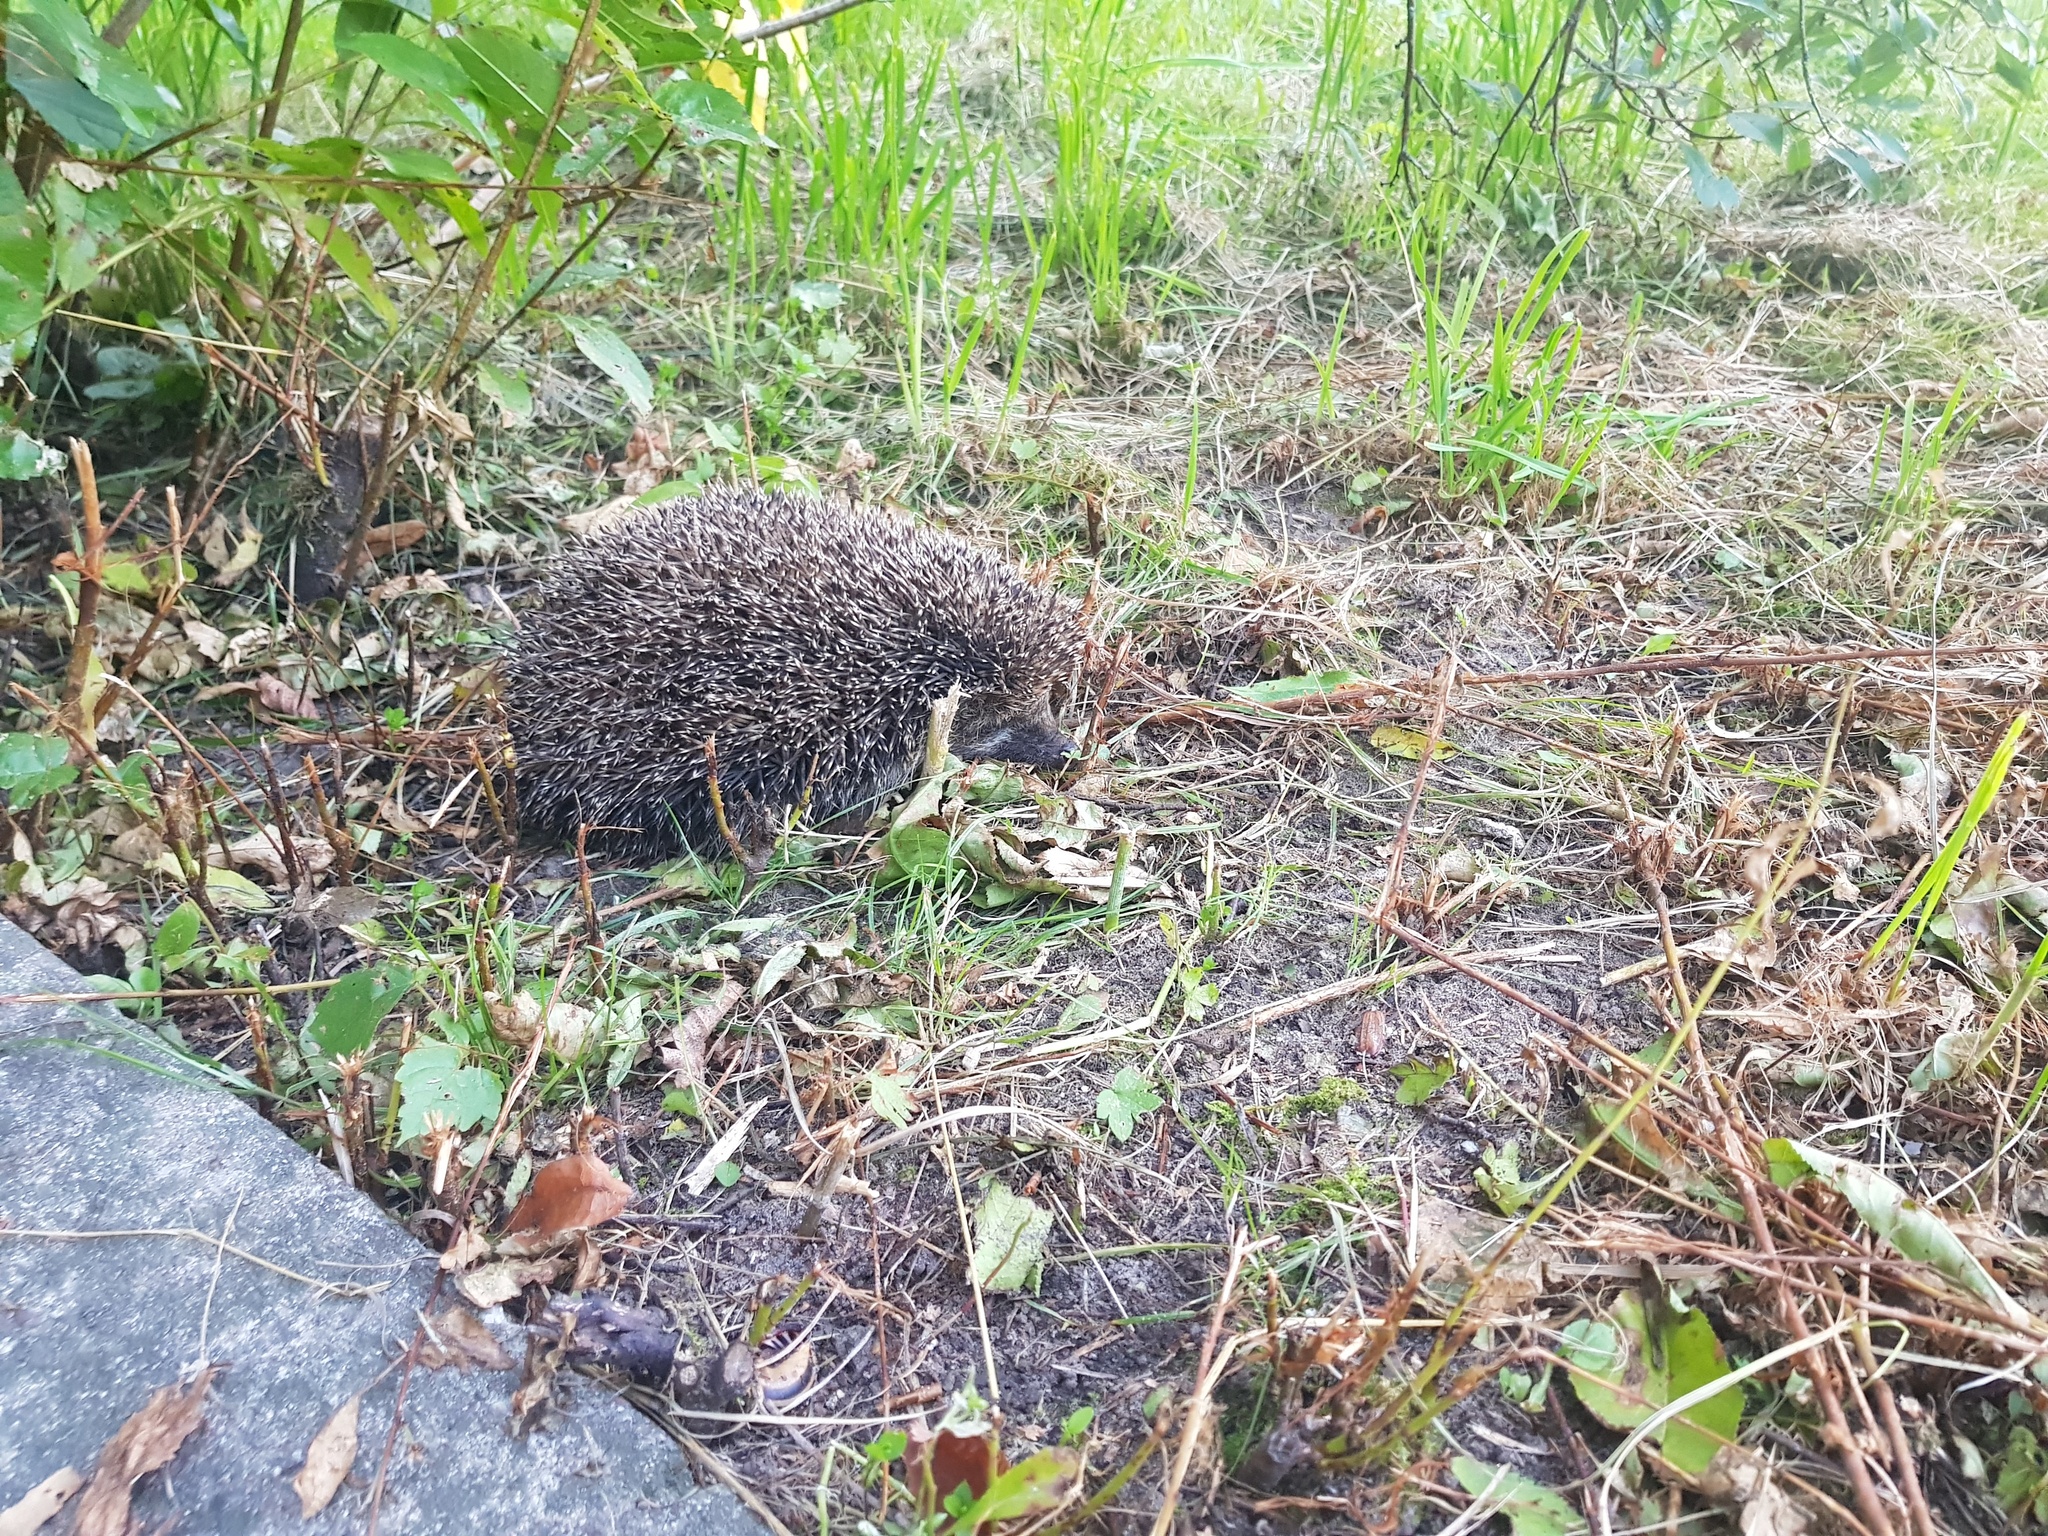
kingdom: Animalia
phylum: Chordata
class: Mammalia
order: Erinaceomorpha
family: Erinaceidae
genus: Erinaceus
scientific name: Erinaceus roumanicus
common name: Northern white-breasted hedgehog
